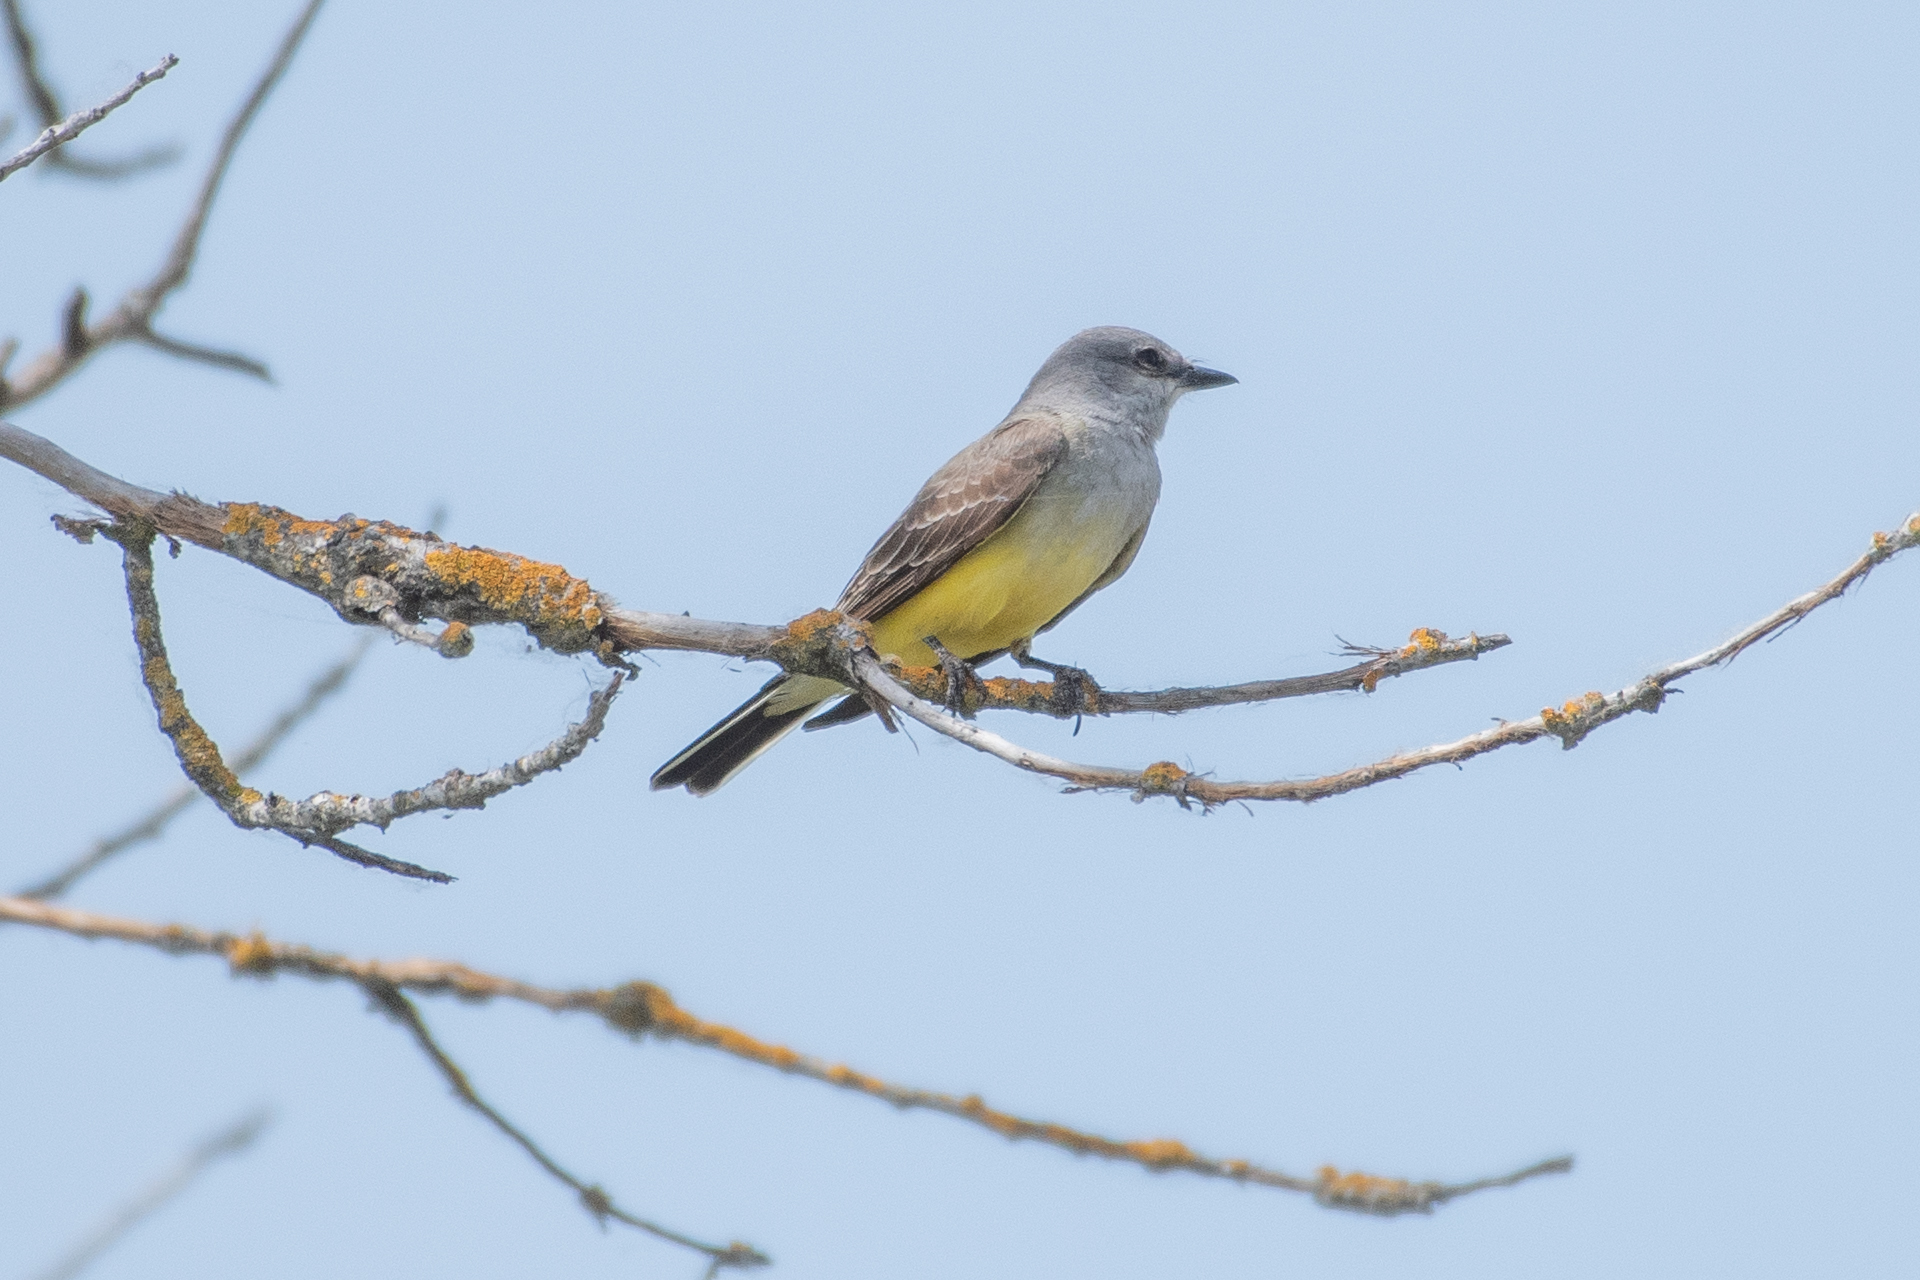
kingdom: Animalia
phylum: Chordata
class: Aves
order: Passeriformes
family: Tyrannidae
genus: Tyrannus
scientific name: Tyrannus verticalis
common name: Western kingbird
